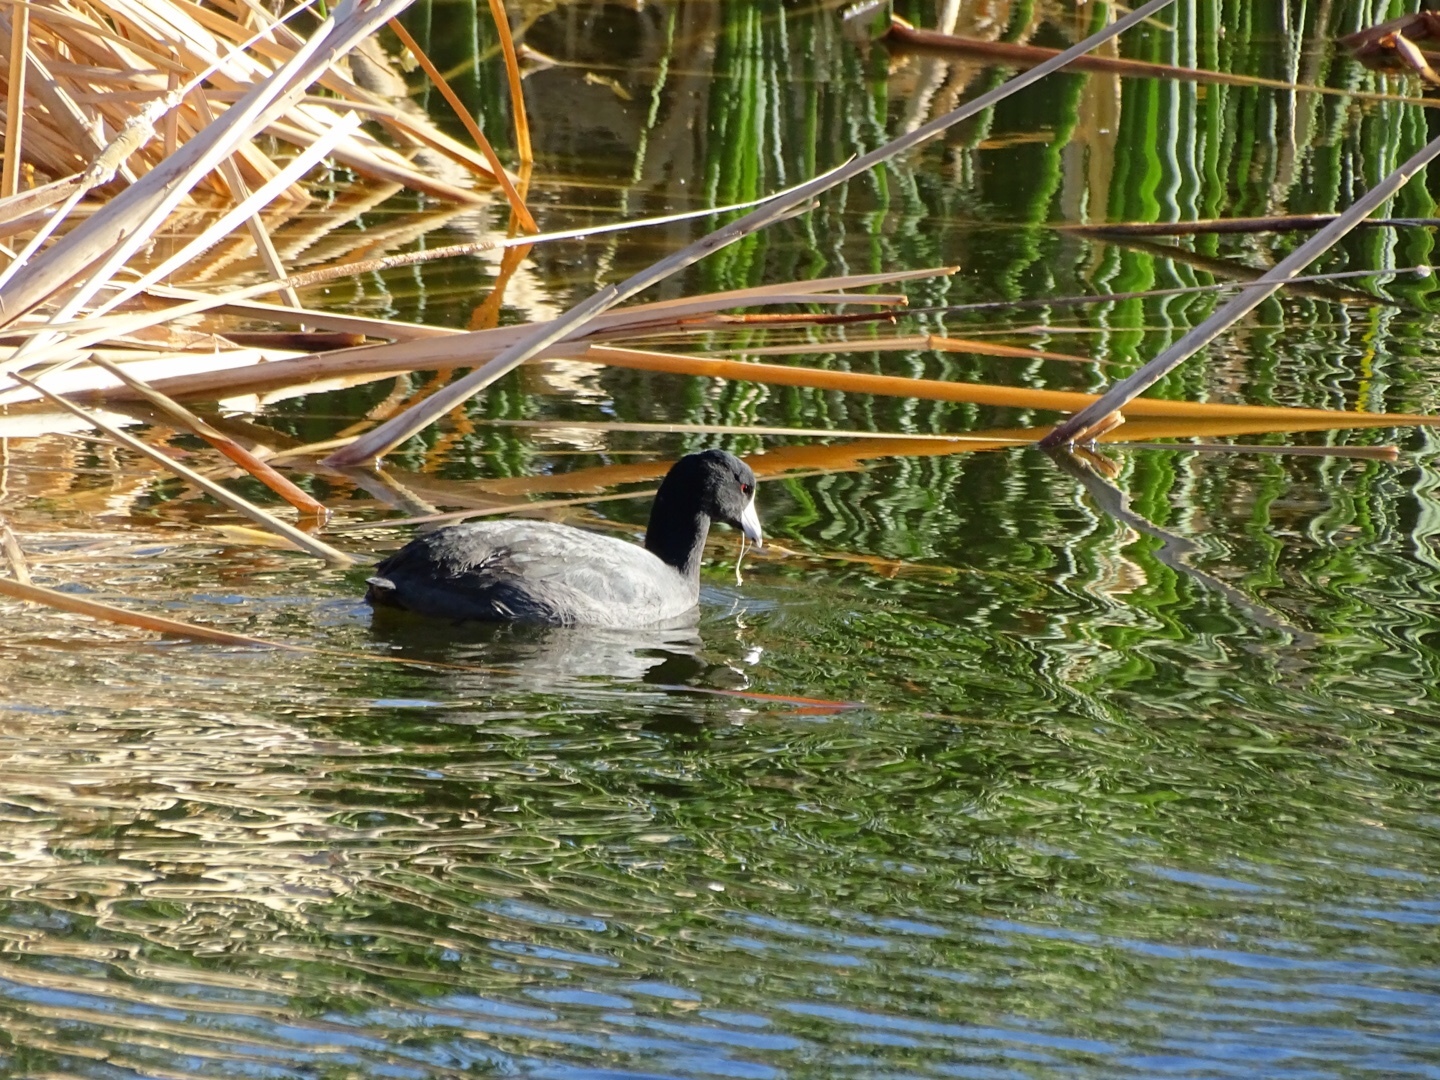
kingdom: Animalia
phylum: Chordata
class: Aves
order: Gruiformes
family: Rallidae
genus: Fulica
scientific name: Fulica americana
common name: American coot
